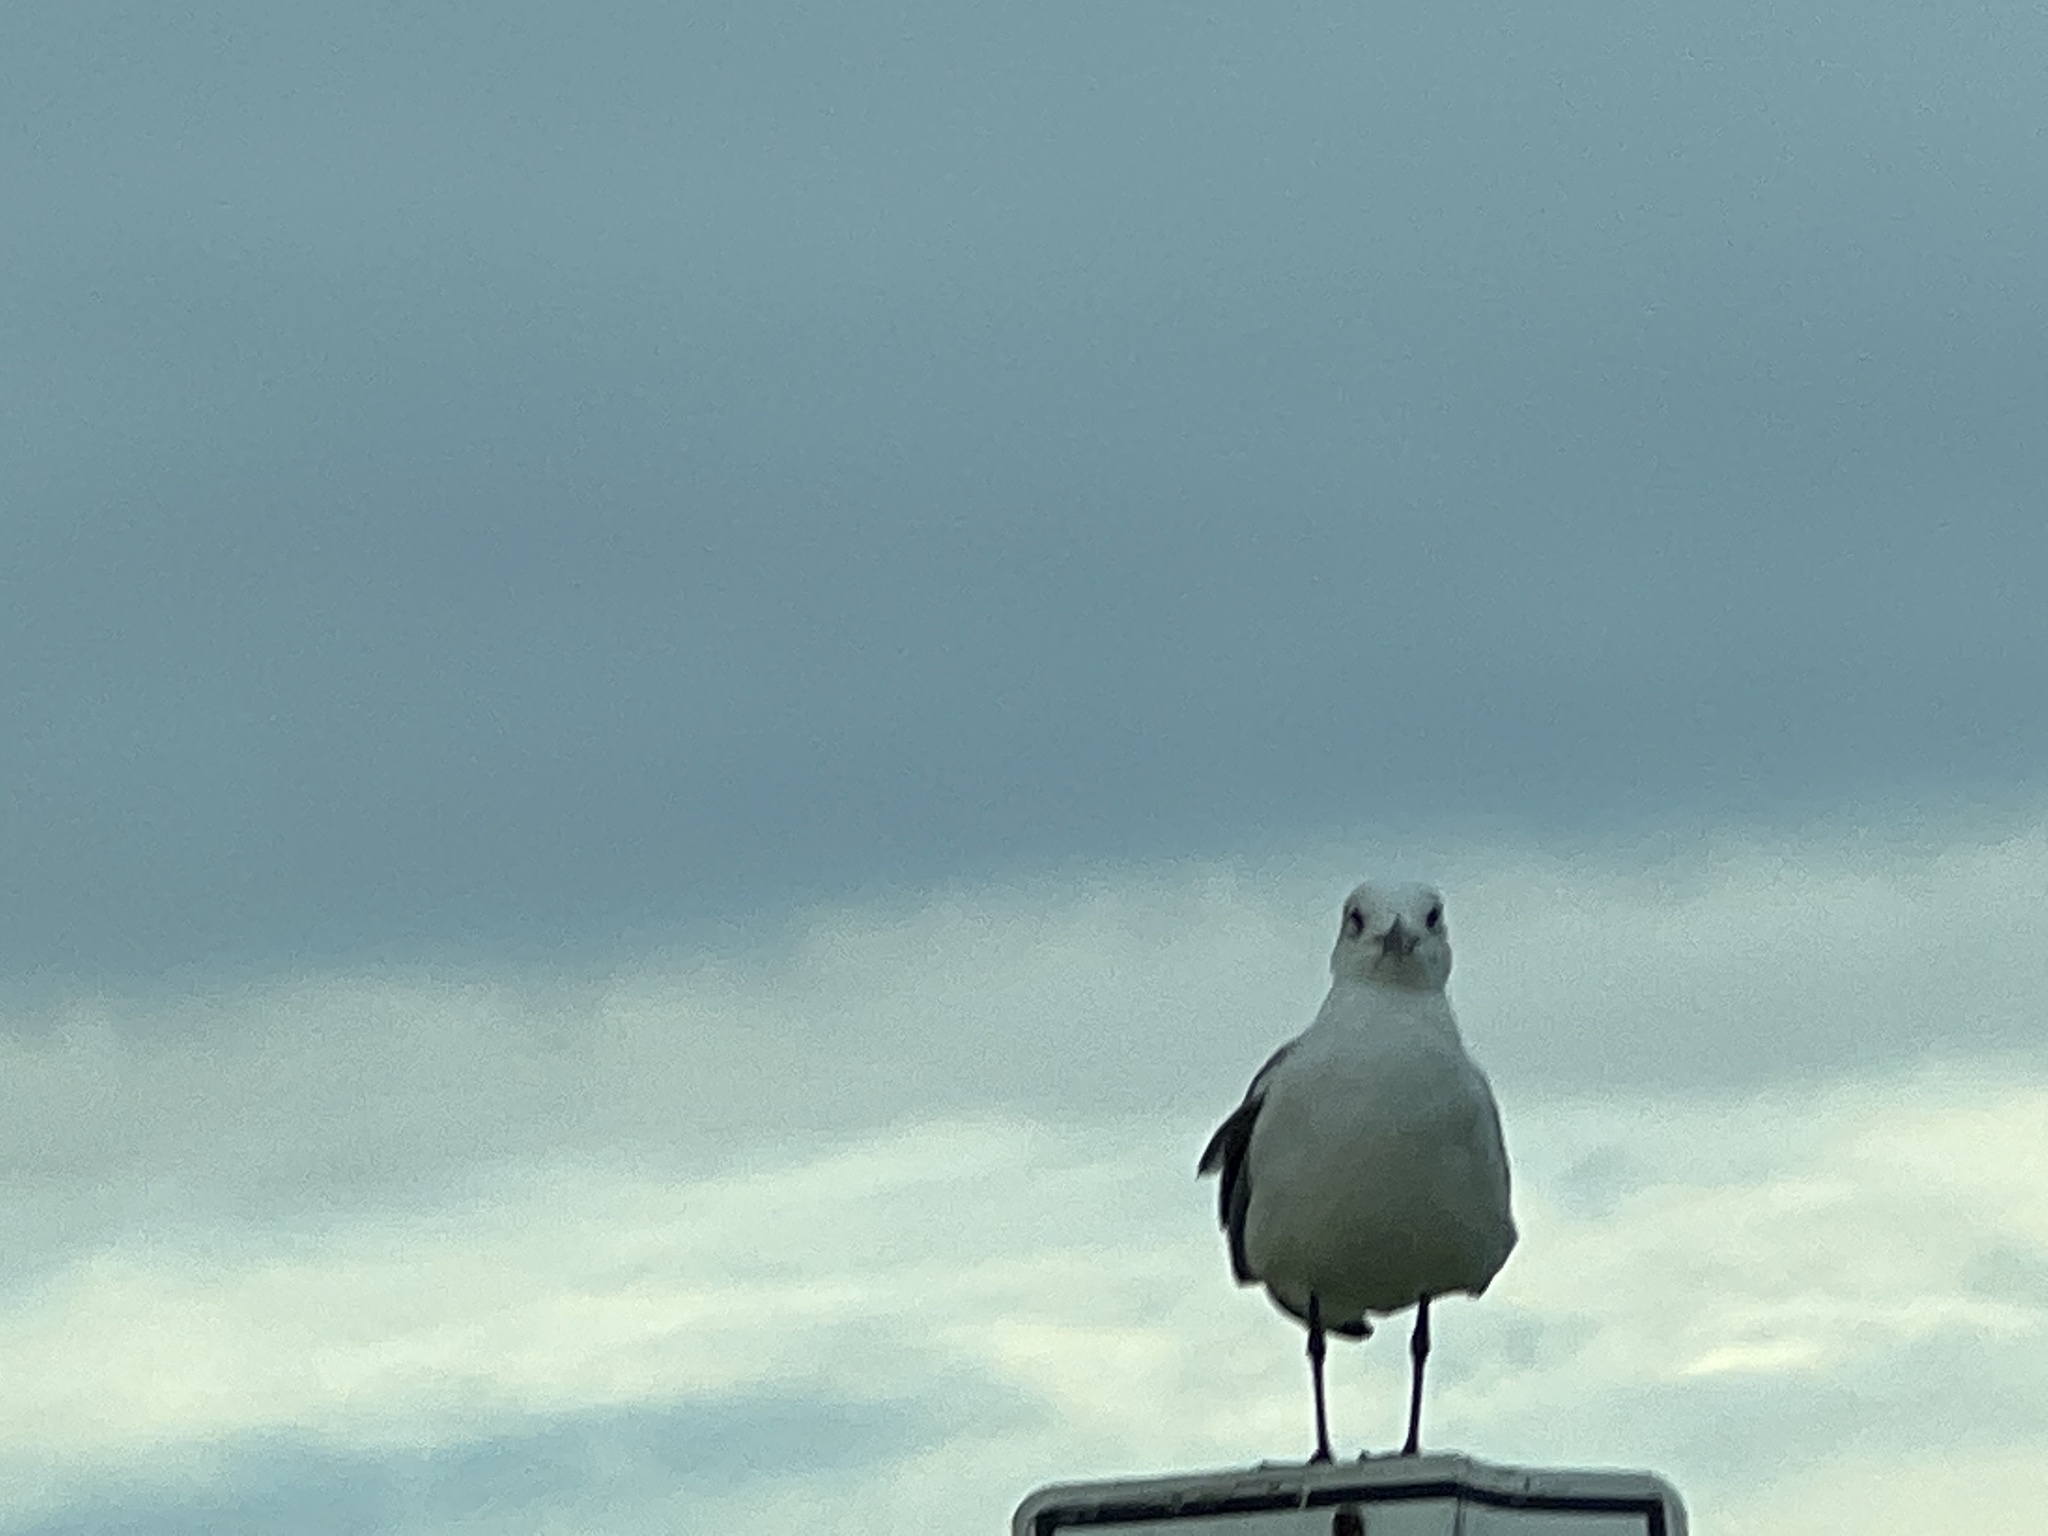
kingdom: Animalia
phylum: Chordata
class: Aves
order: Charadriiformes
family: Laridae
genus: Leucophaeus
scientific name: Leucophaeus atricilla
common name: Laughing gull
